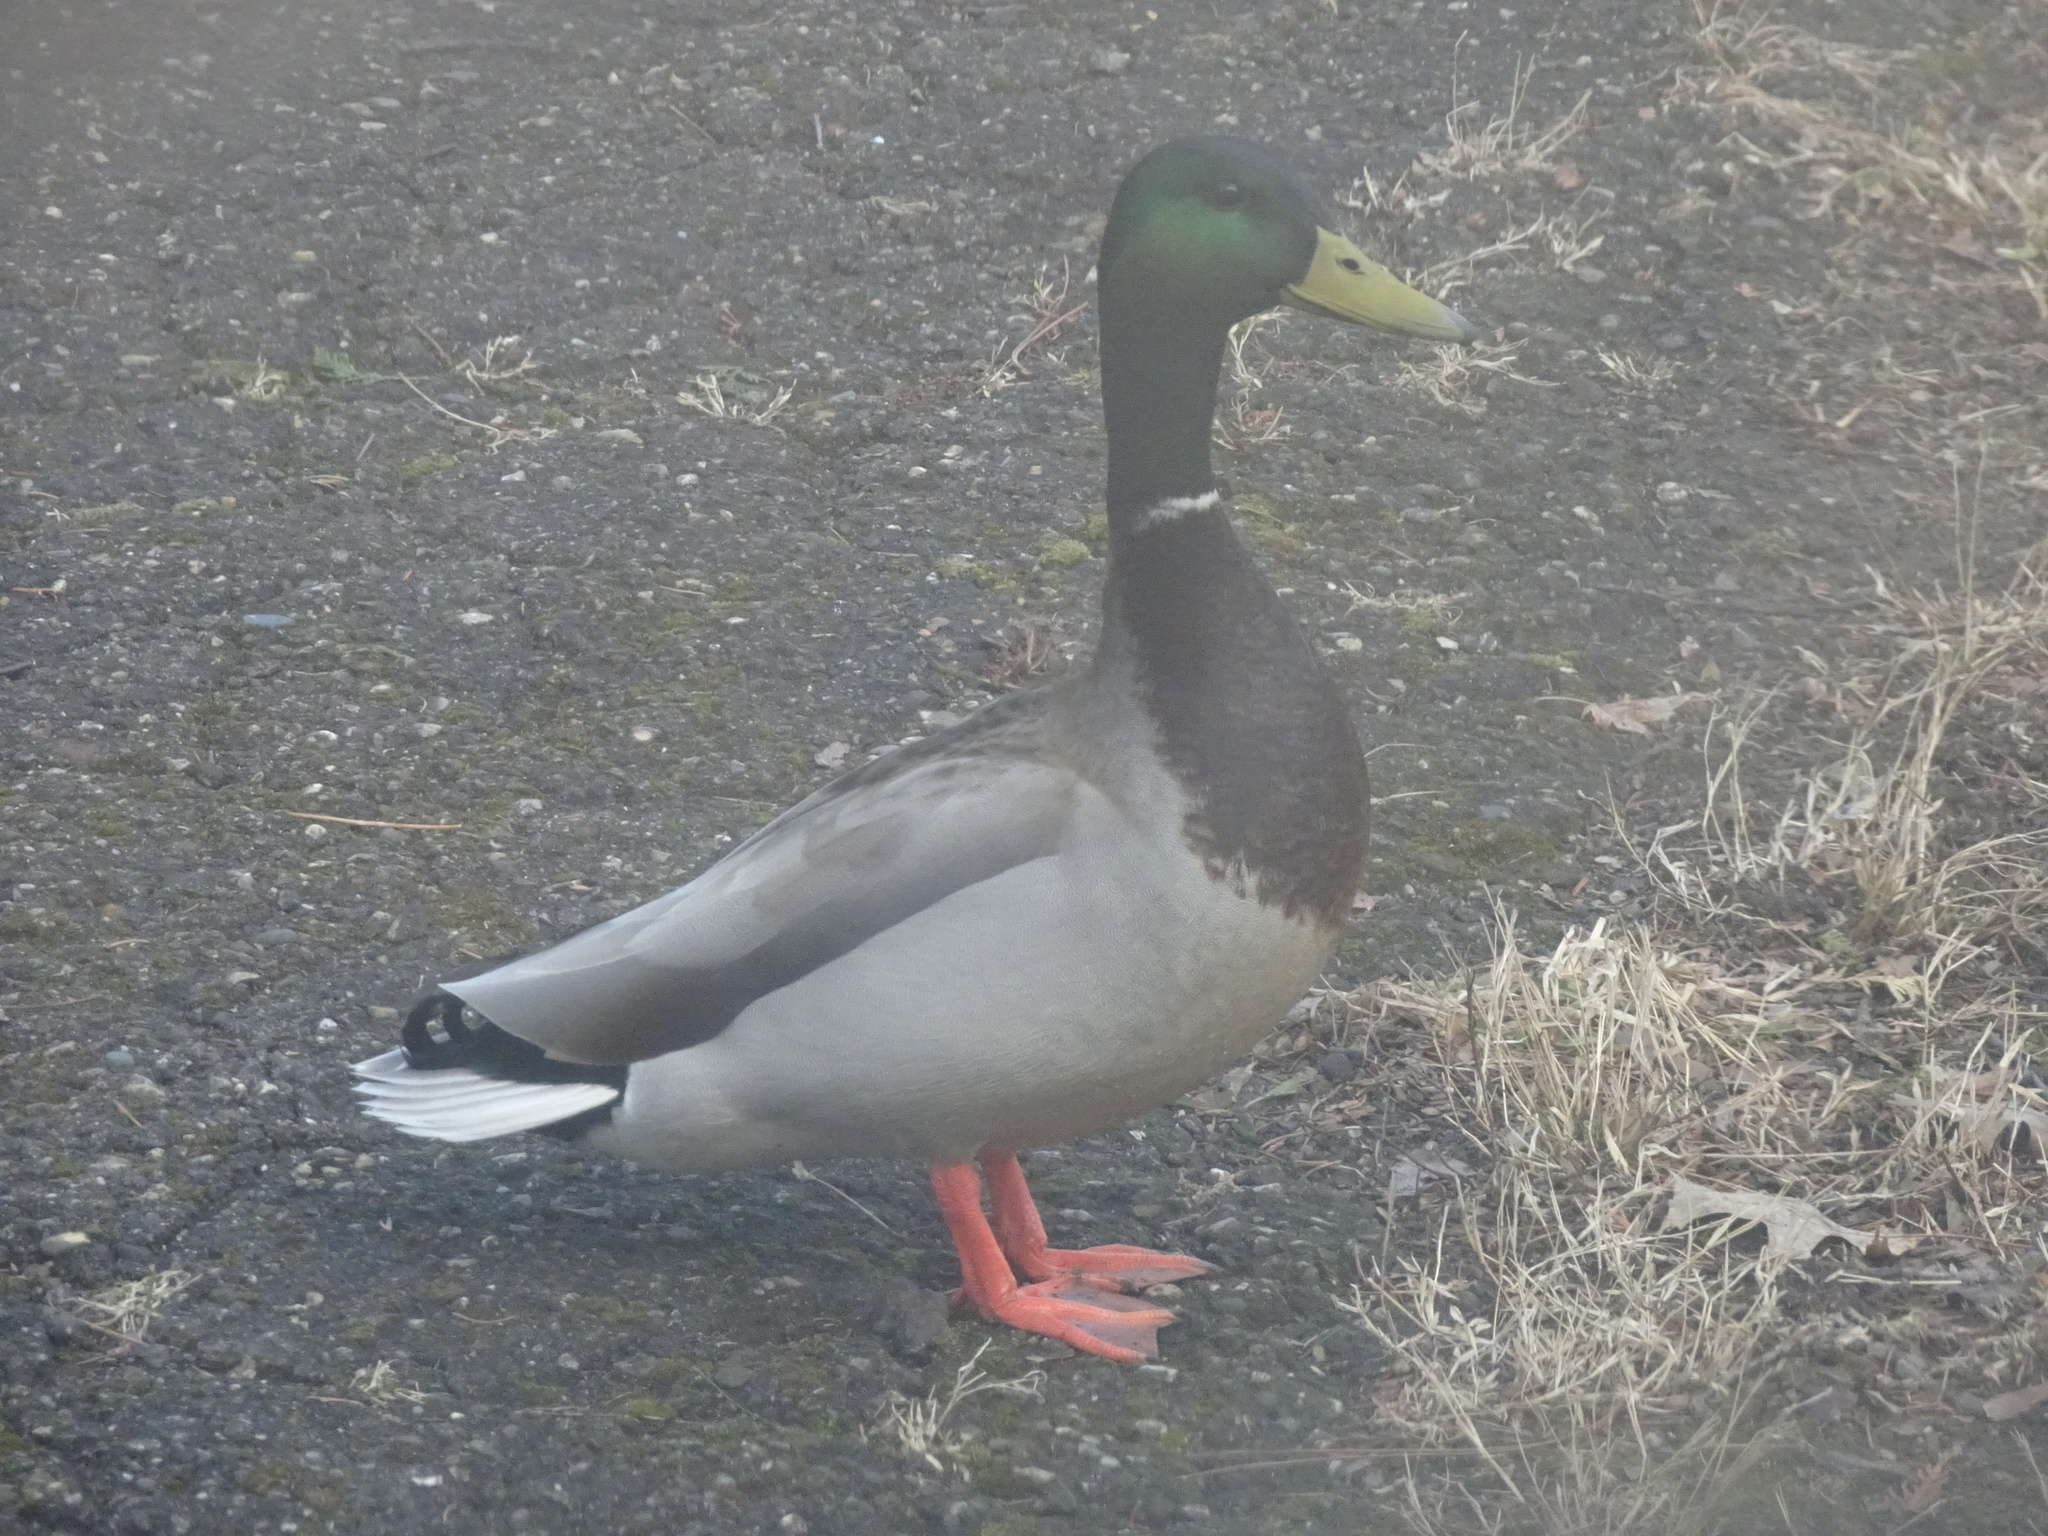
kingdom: Animalia
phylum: Chordata
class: Aves
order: Anseriformes
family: Anatidae
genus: Anas
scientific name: Anas platyrhynchos
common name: Mallard
